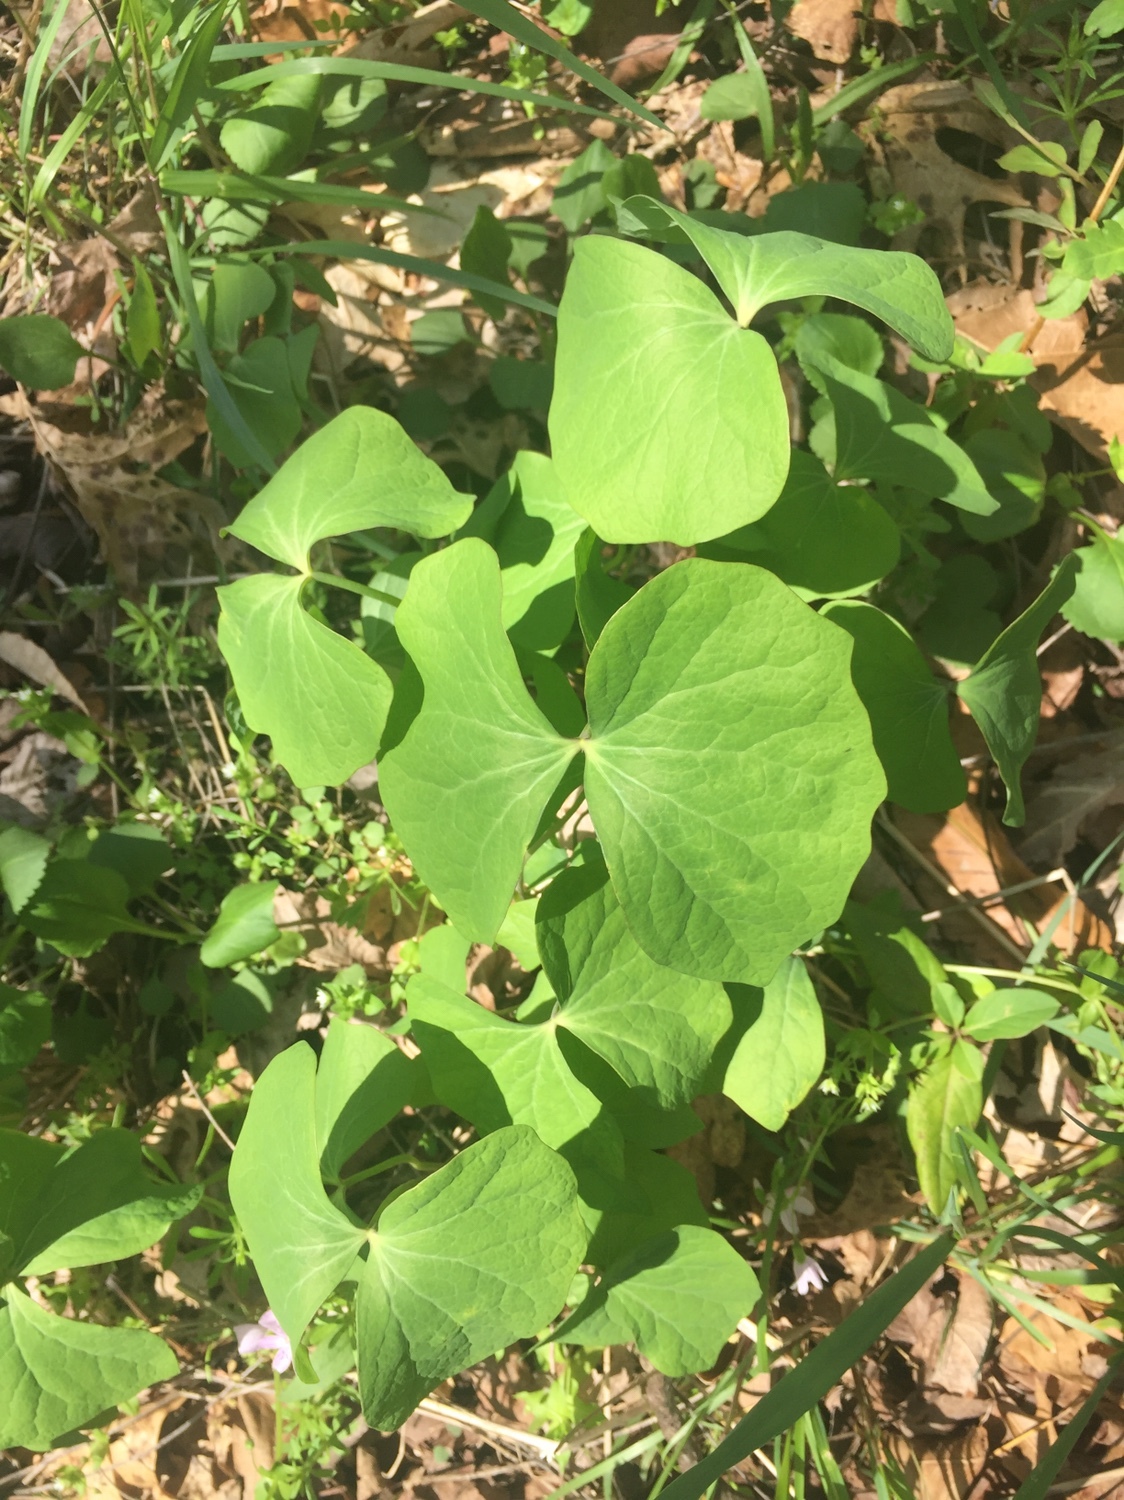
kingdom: Plantae
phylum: Tracheophyta
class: Magnoliopsida
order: Ranunculales
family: Berberidaceae
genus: Jeffersonia
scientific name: Jeffersonia diphylla
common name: Rheumatism-root
